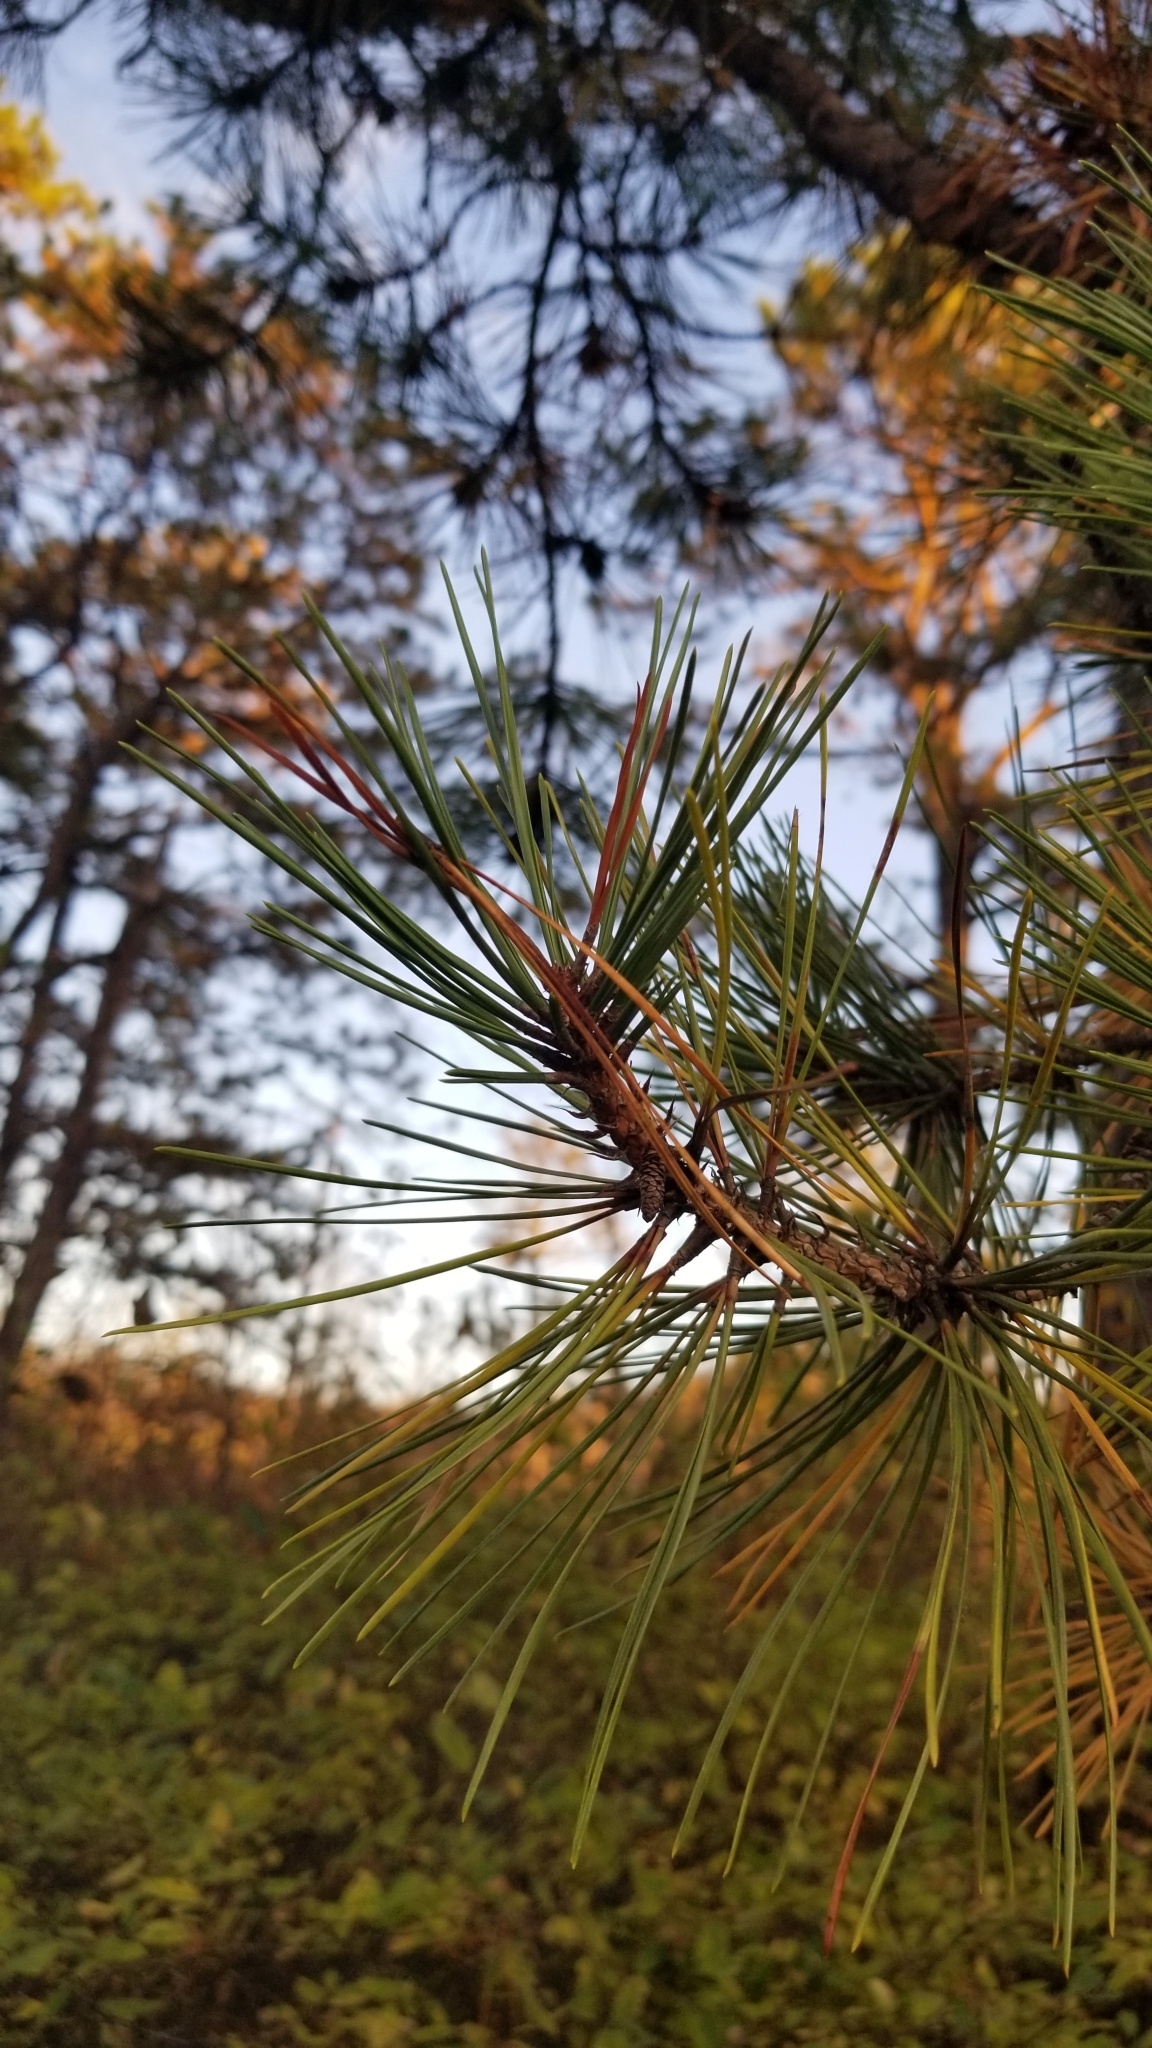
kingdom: Plantae
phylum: Tracheophyta
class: Pinopsida
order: Pinales
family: Pinaceae
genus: Pinus
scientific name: Pinus rigida
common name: Pitch pine
